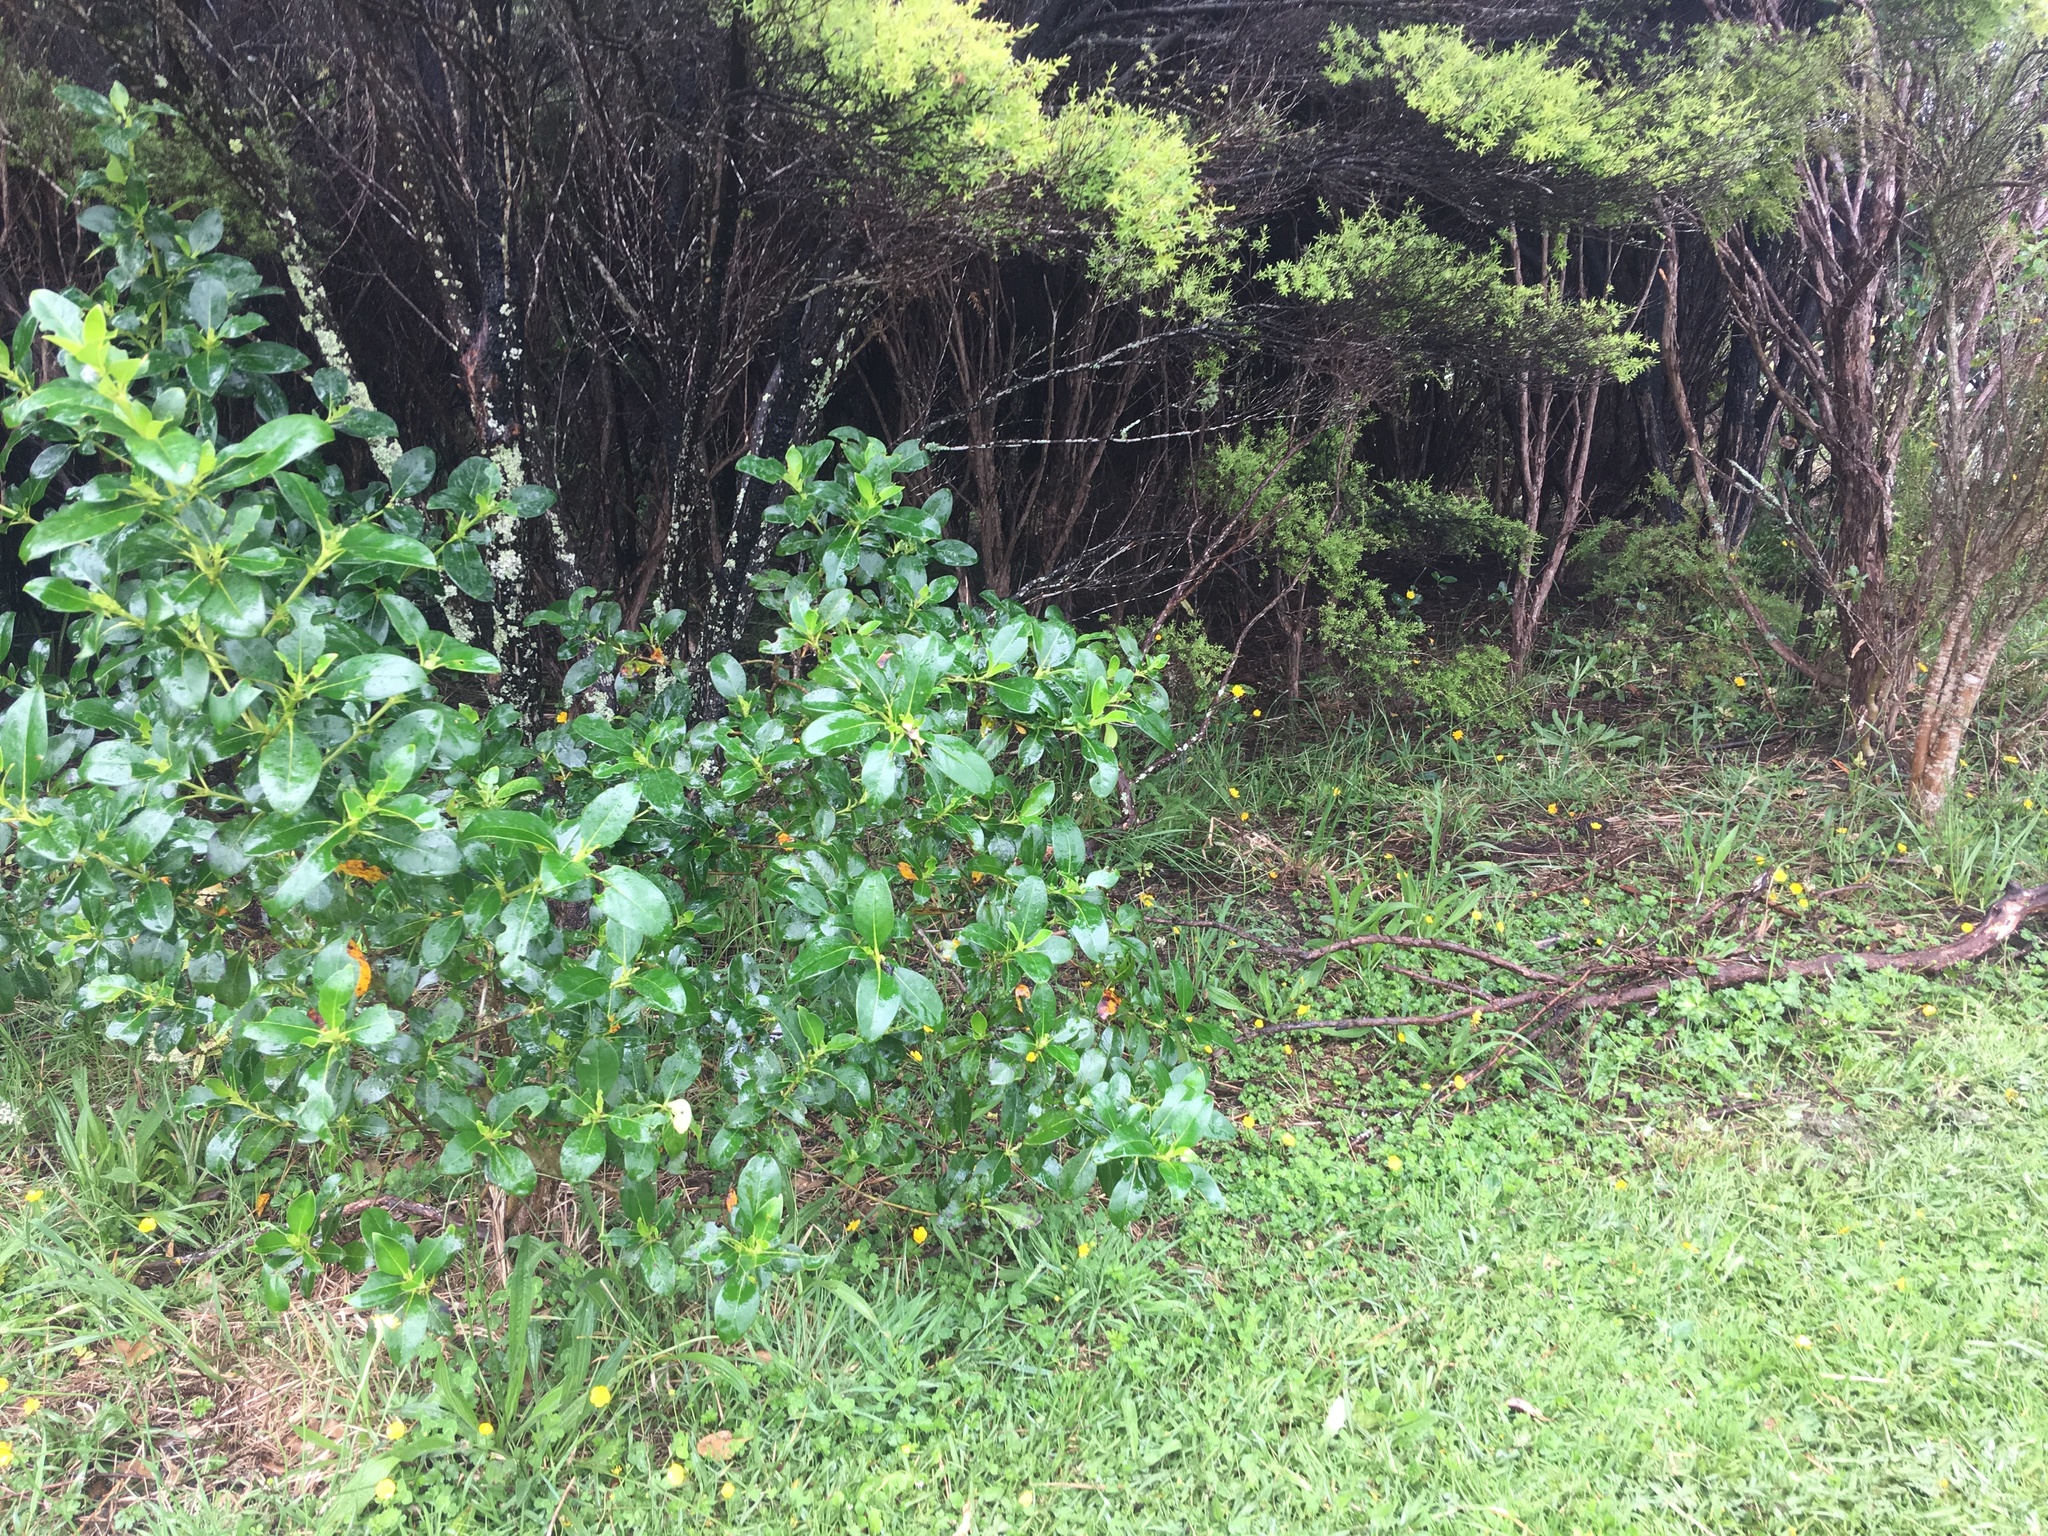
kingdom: Plantae
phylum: Tracheophyta
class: Magnoliopsida
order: Gentianales
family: Rubiaceae
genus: Coprosma
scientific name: Coprosma robusta
